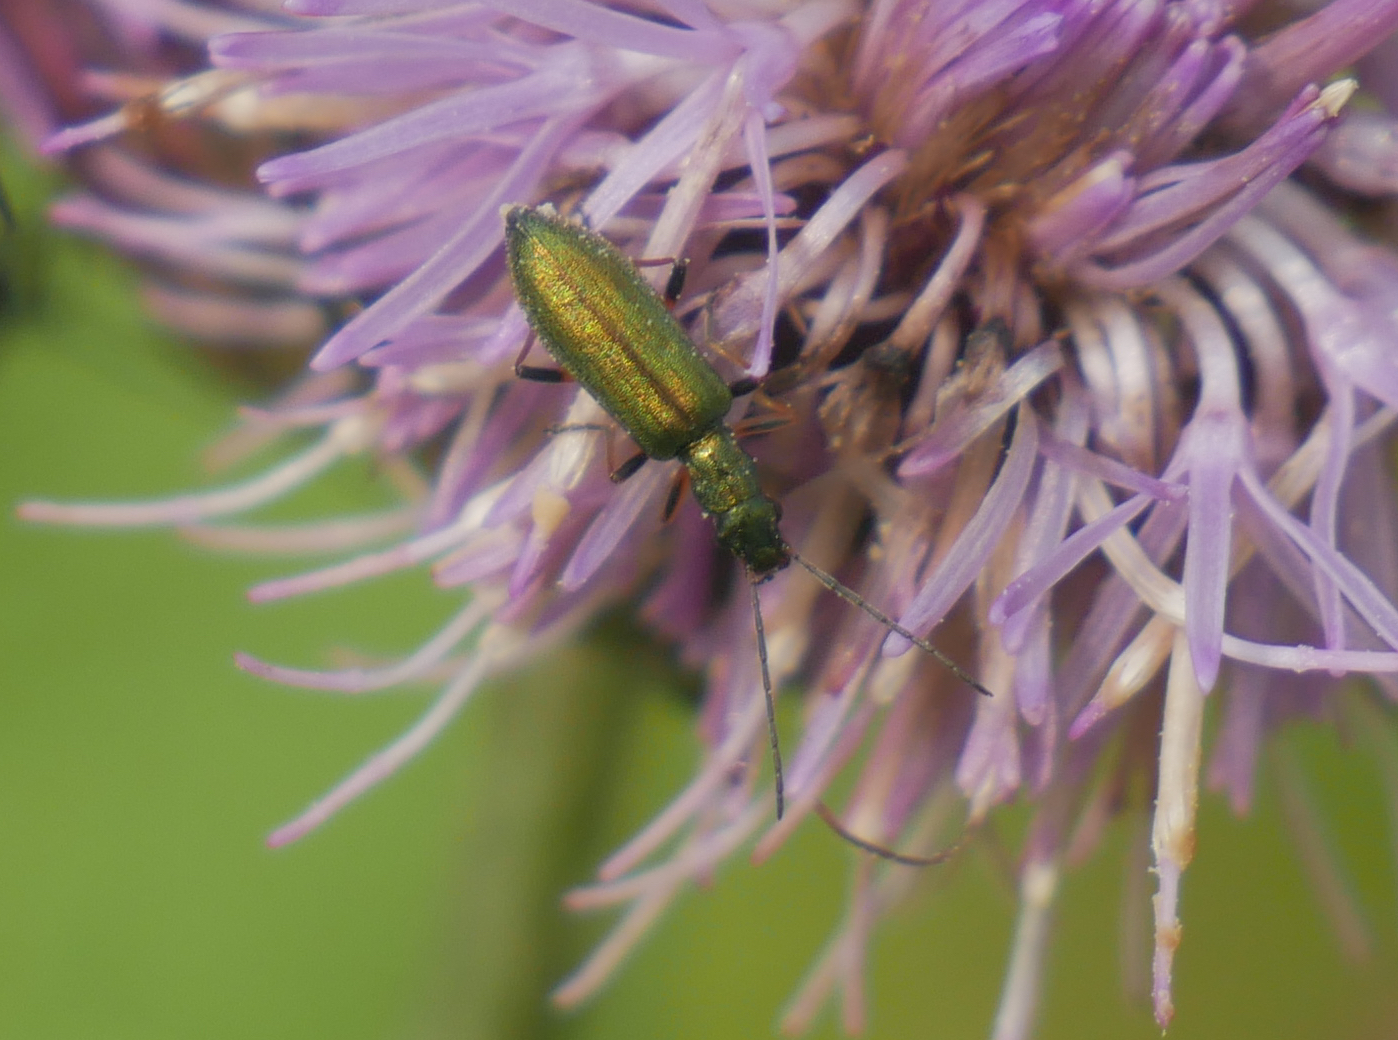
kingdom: Animalia
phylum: Arthropoda
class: Insecta
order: Coleoptera
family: Oedemeridae
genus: Chrysanthia
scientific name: Chrysanthia geniculata
